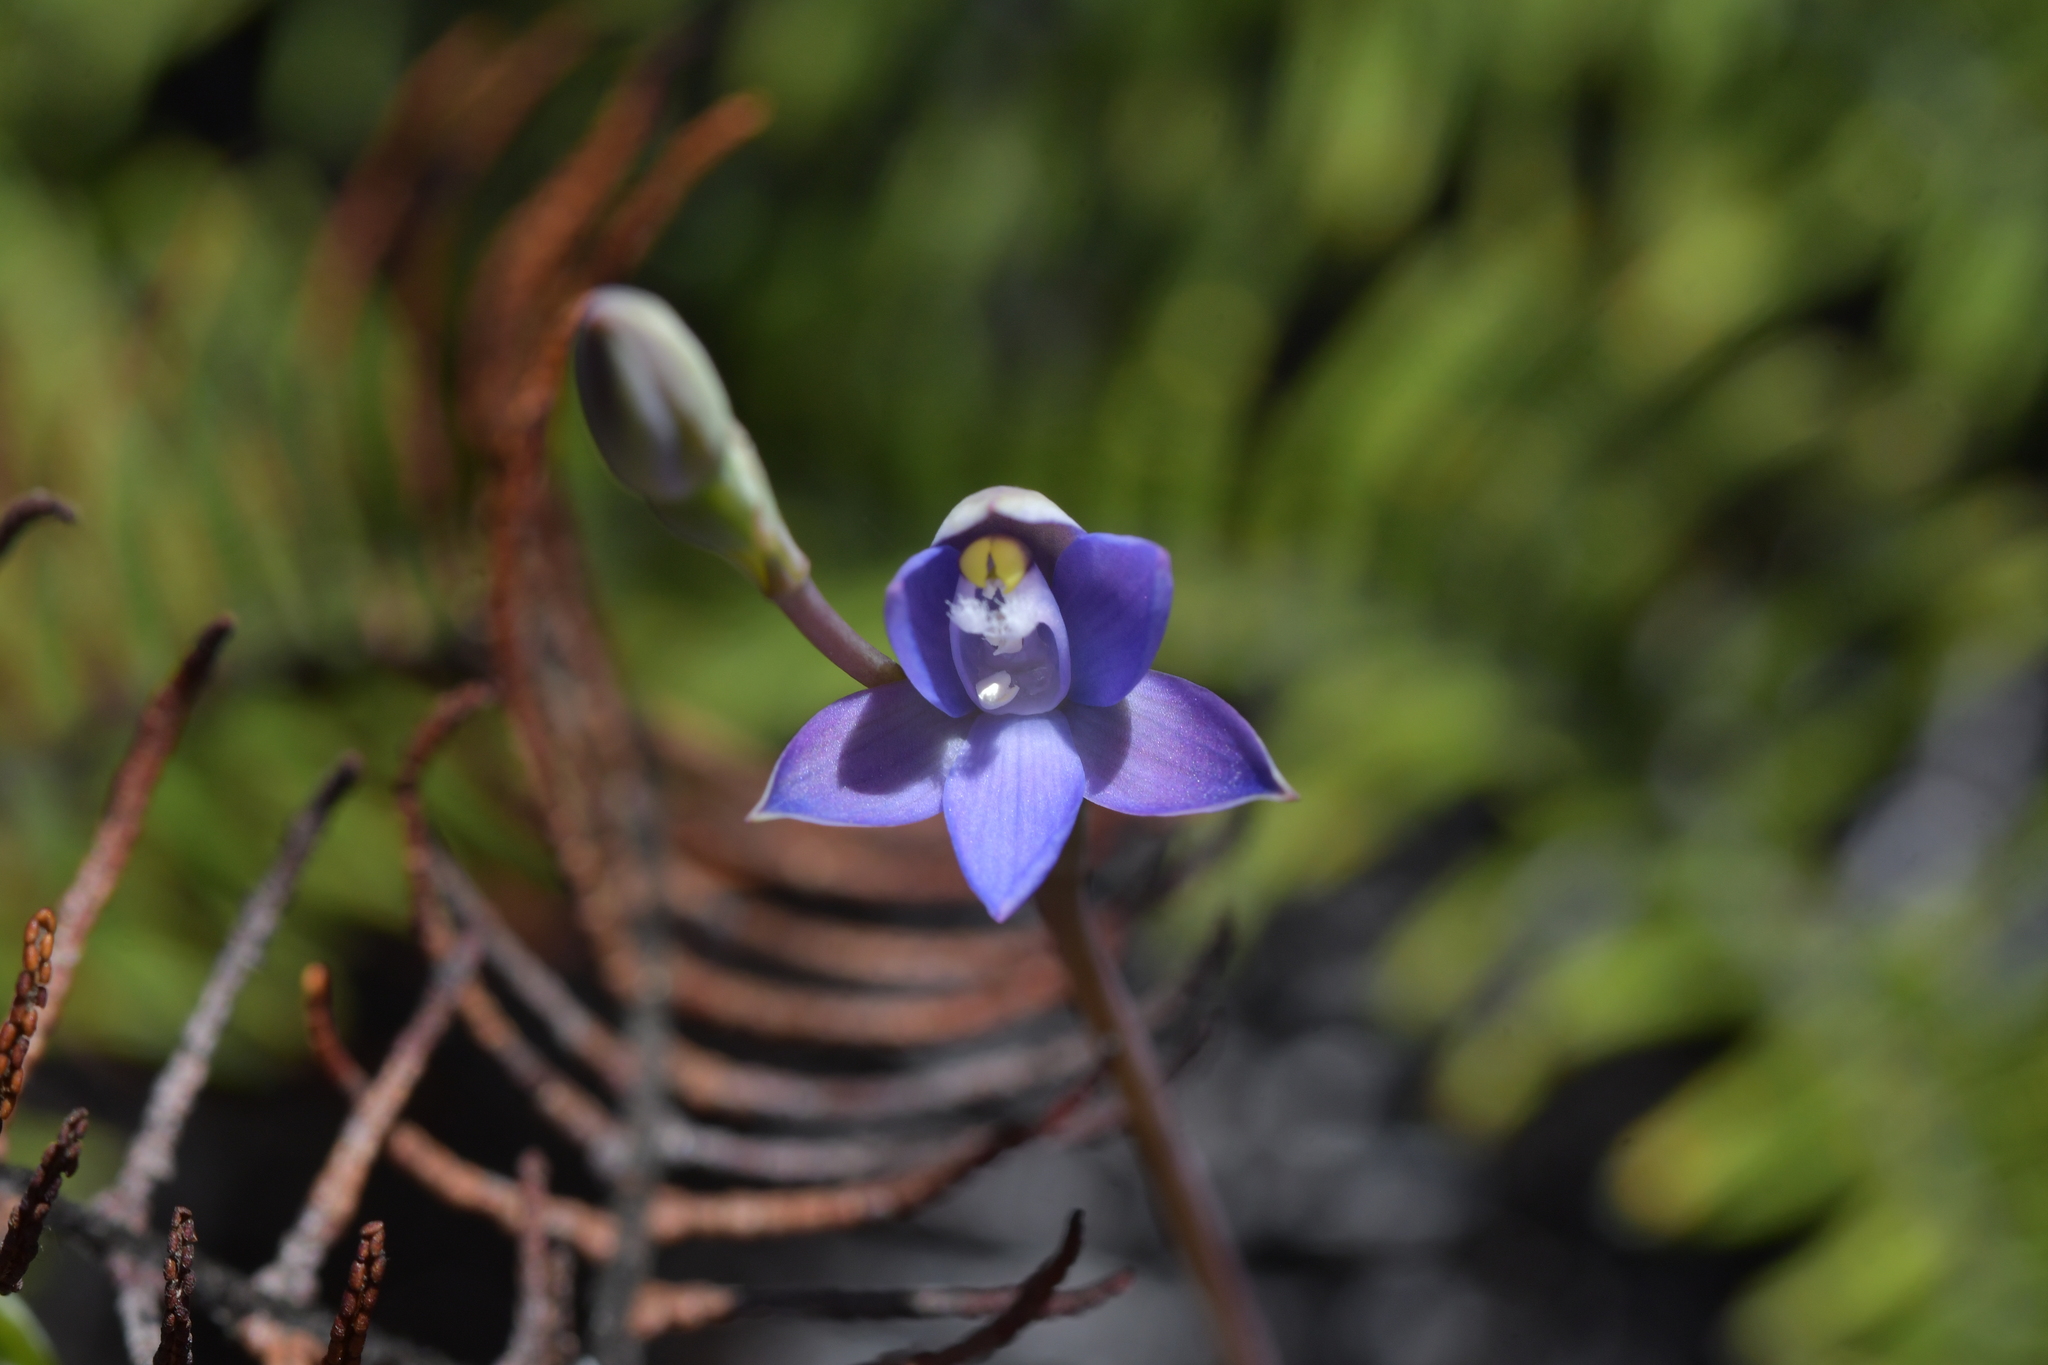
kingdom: Plantae
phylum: Tracheophyta
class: Liliopsida
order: Asparagales
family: Orchidaceae
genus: Thelymitra
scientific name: Thelymitra pauciflora
